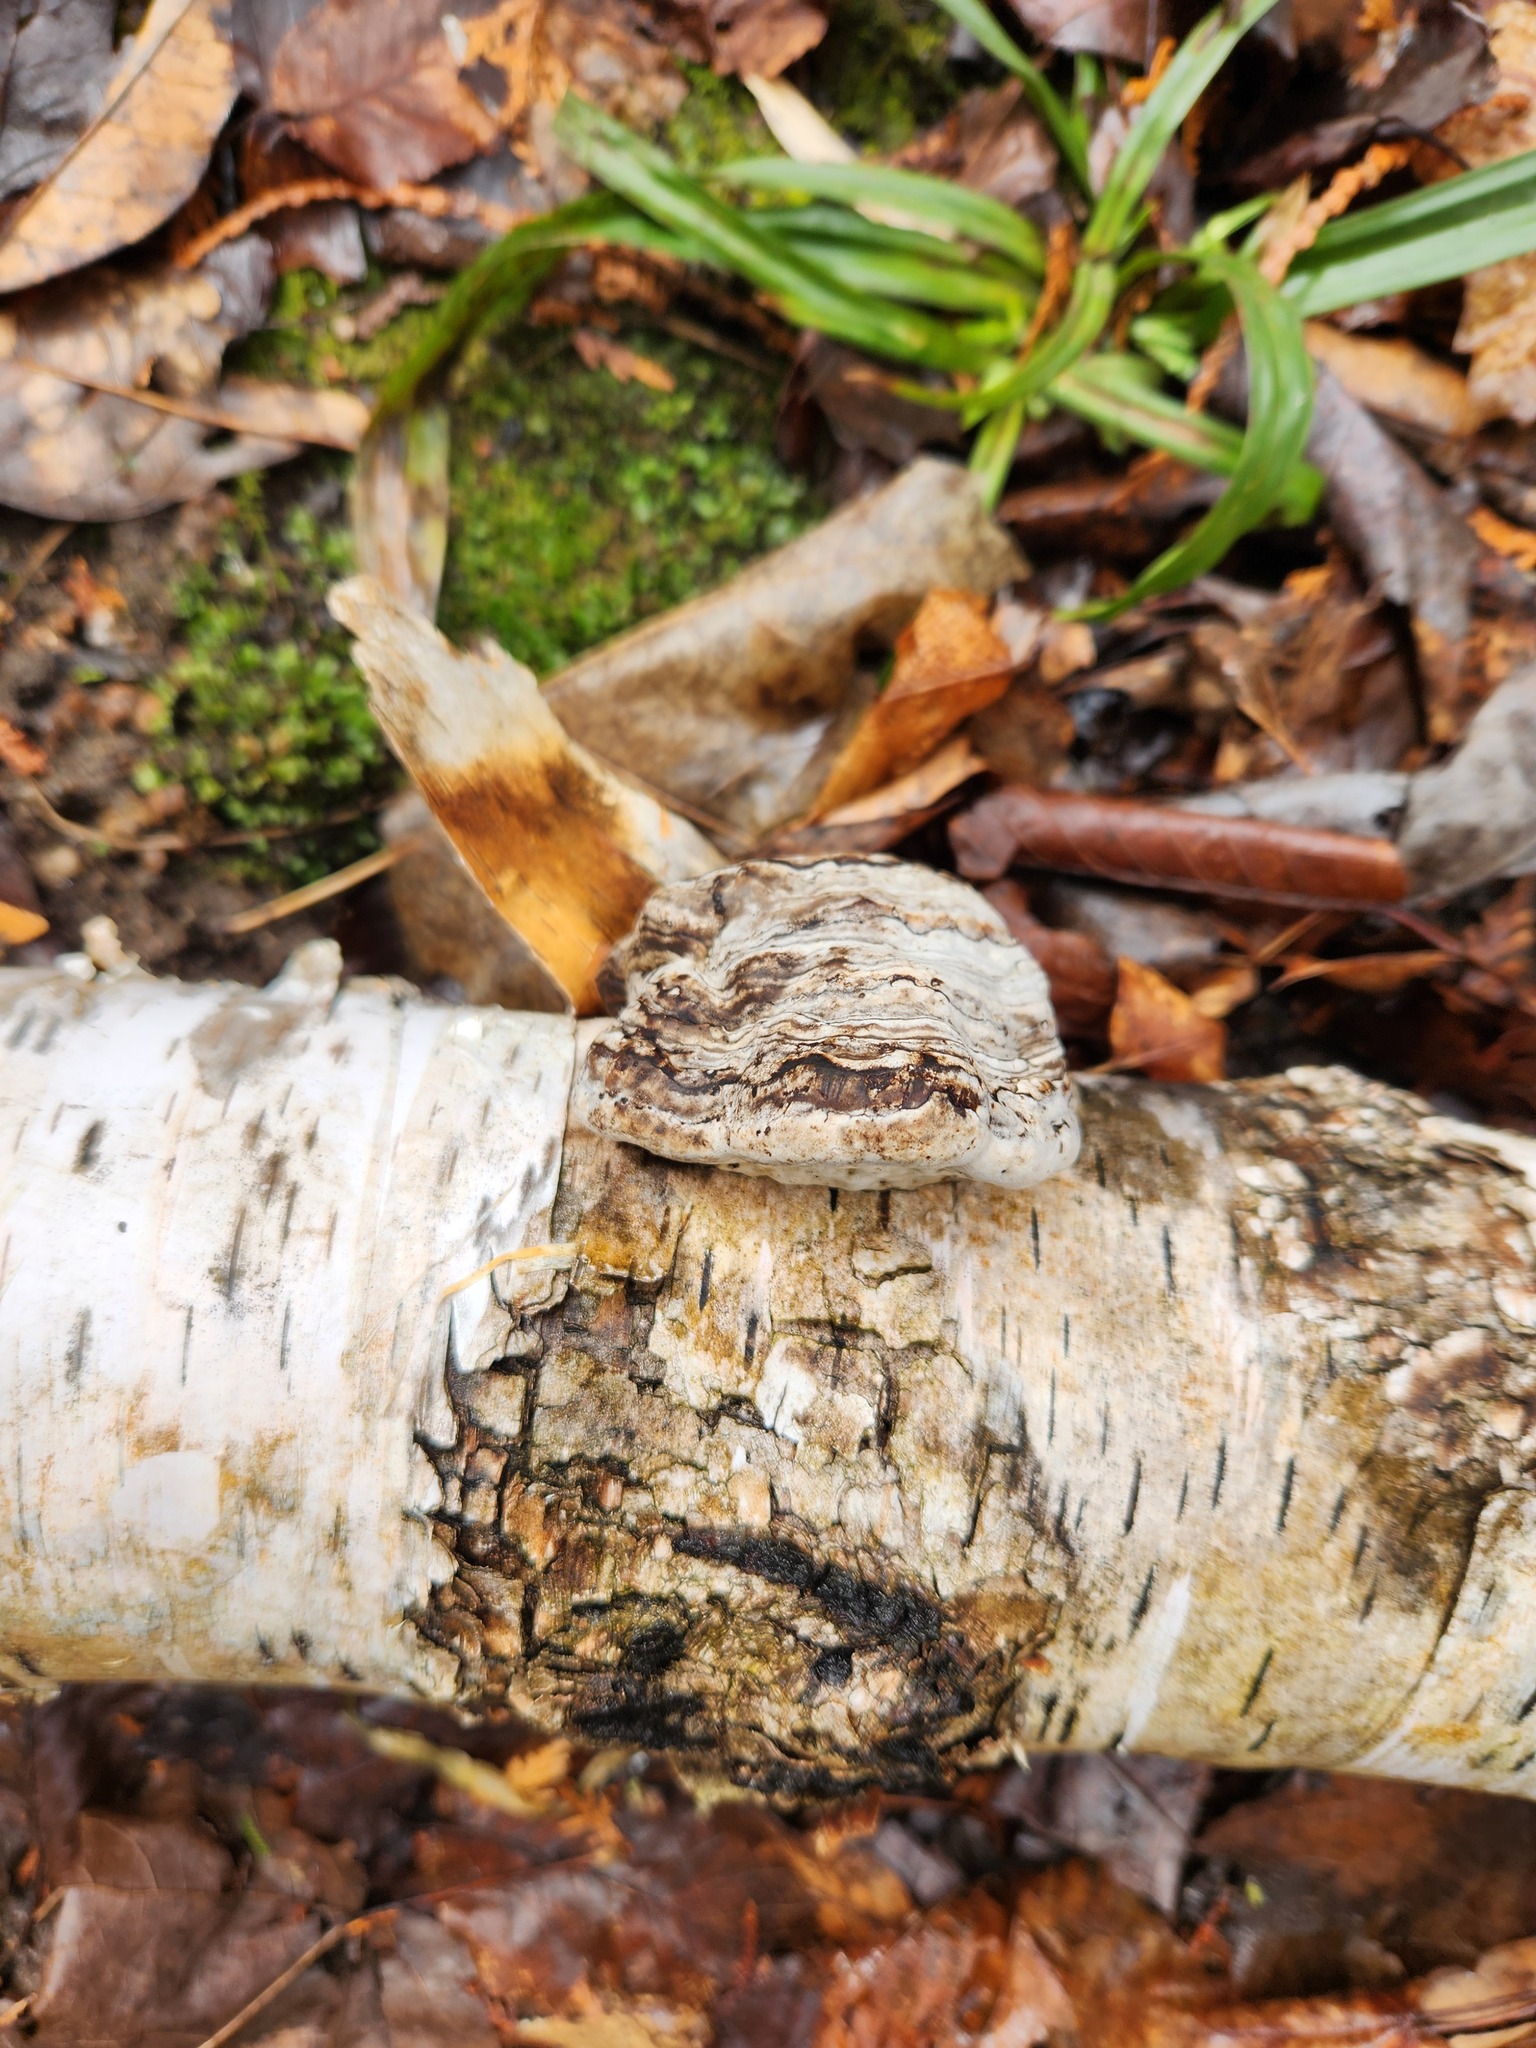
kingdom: Fungi
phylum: Basidiomycota
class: Agaricomycetes
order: Polyporales
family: Polyporaceae
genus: Fomes
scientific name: Fomes fomentarius
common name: Hoof fungus
